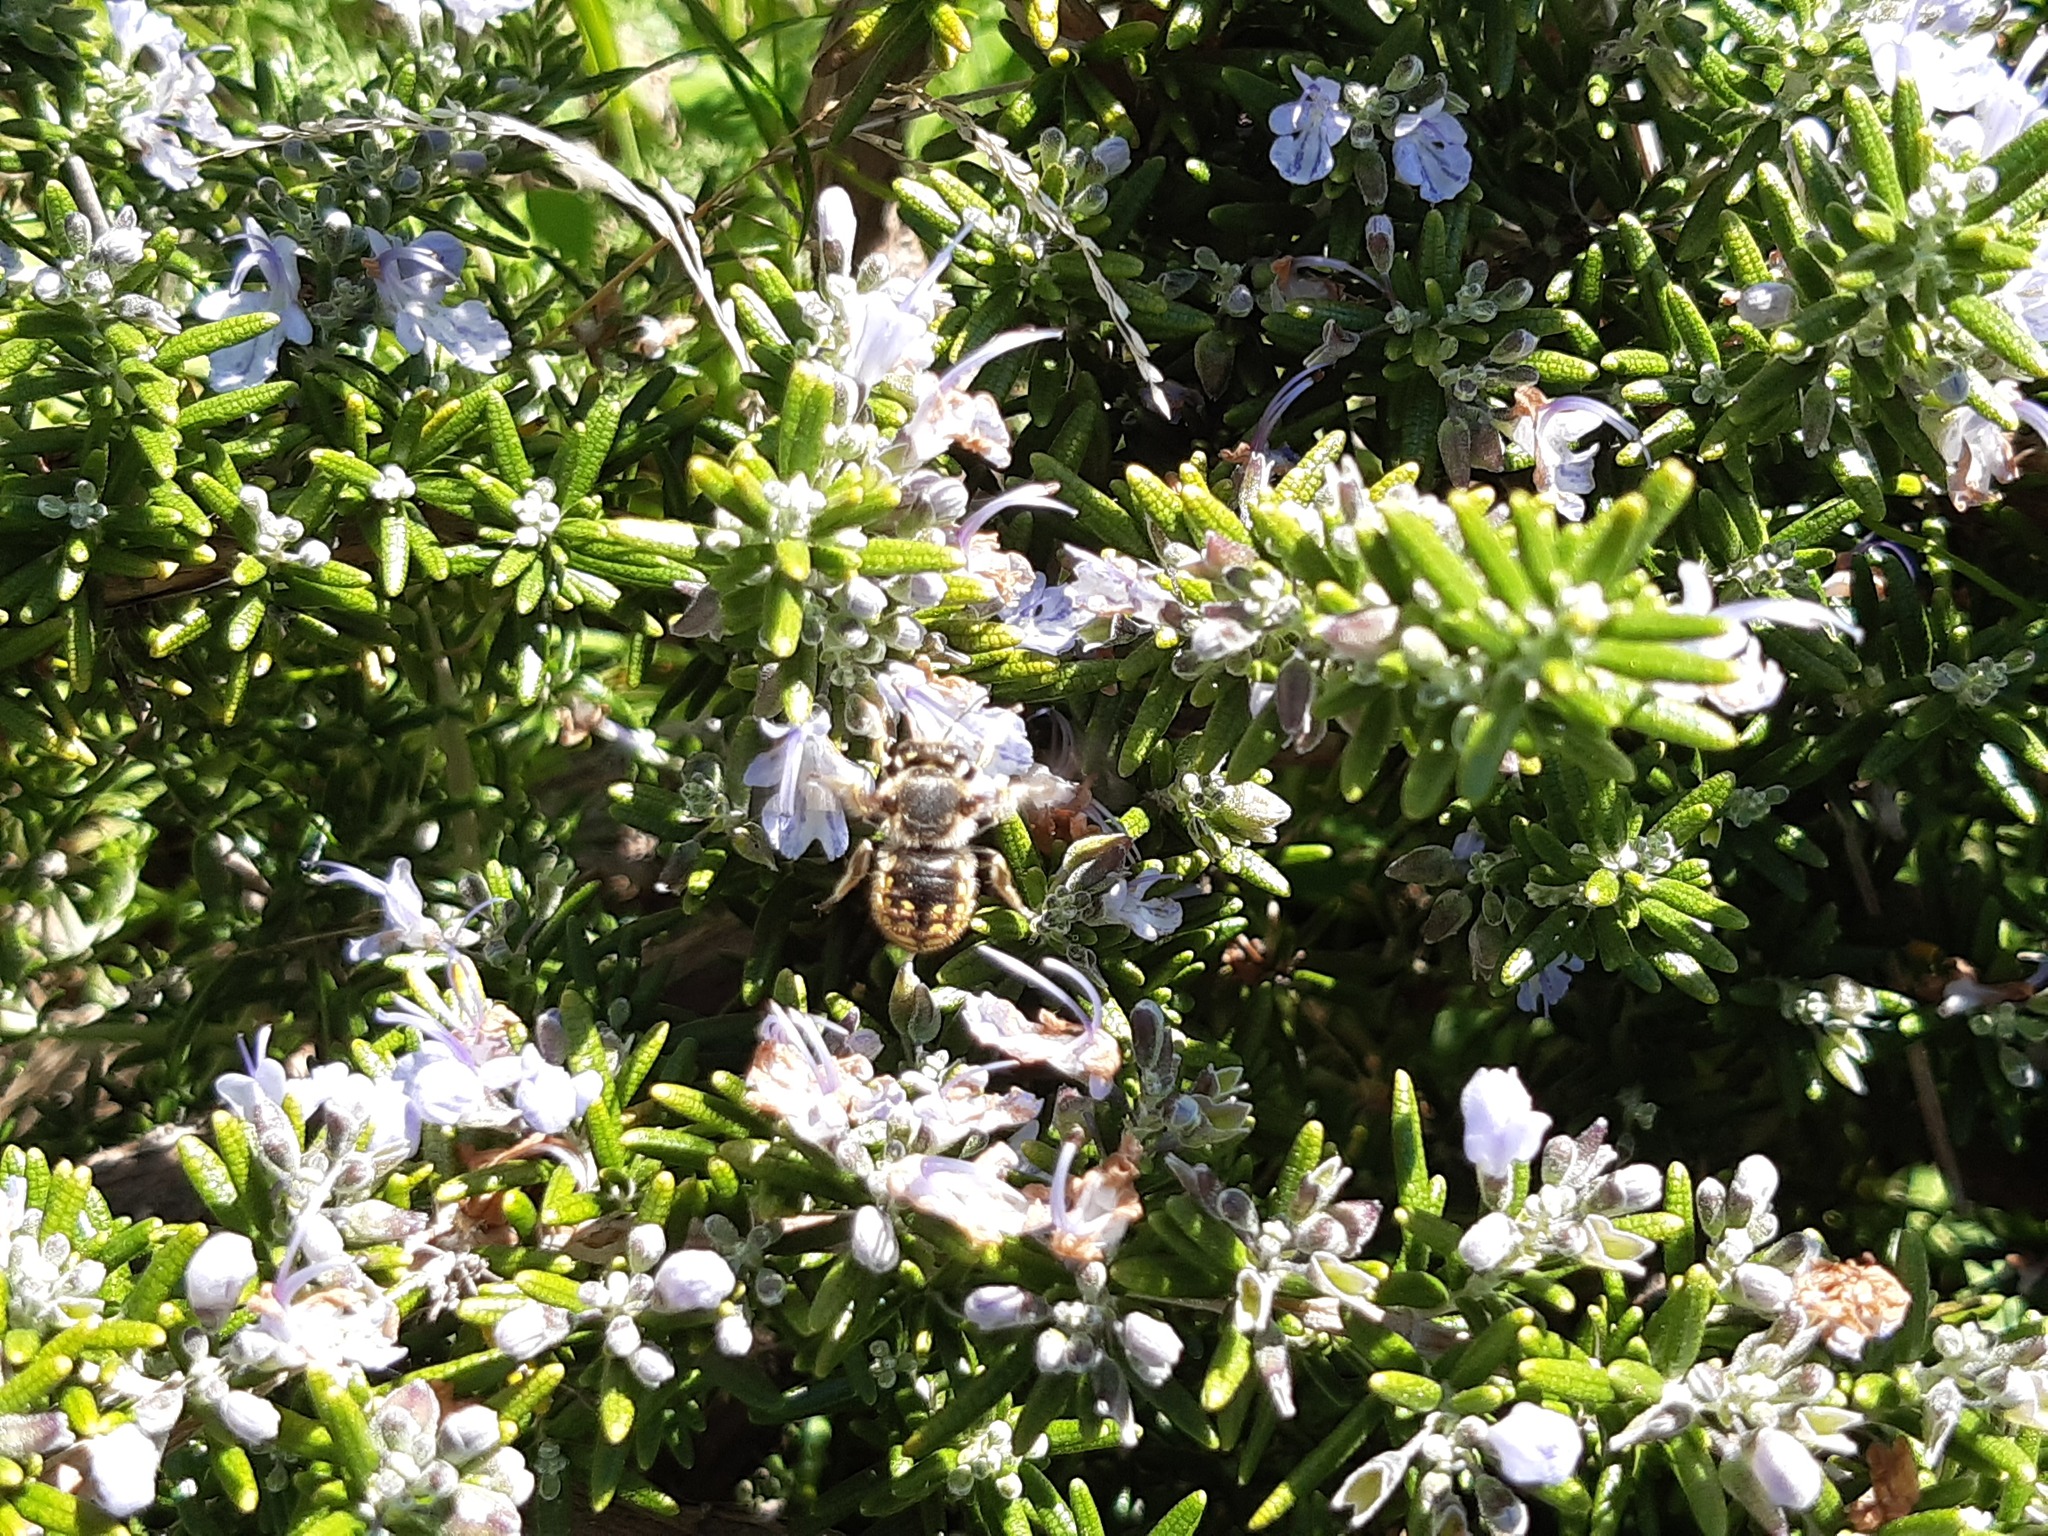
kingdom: Animalia
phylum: Arthropoda
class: Insecta
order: Hymenoptera
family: Megachilidae
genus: Anthidium
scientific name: Anthidium manicatum
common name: Wool carder bee
